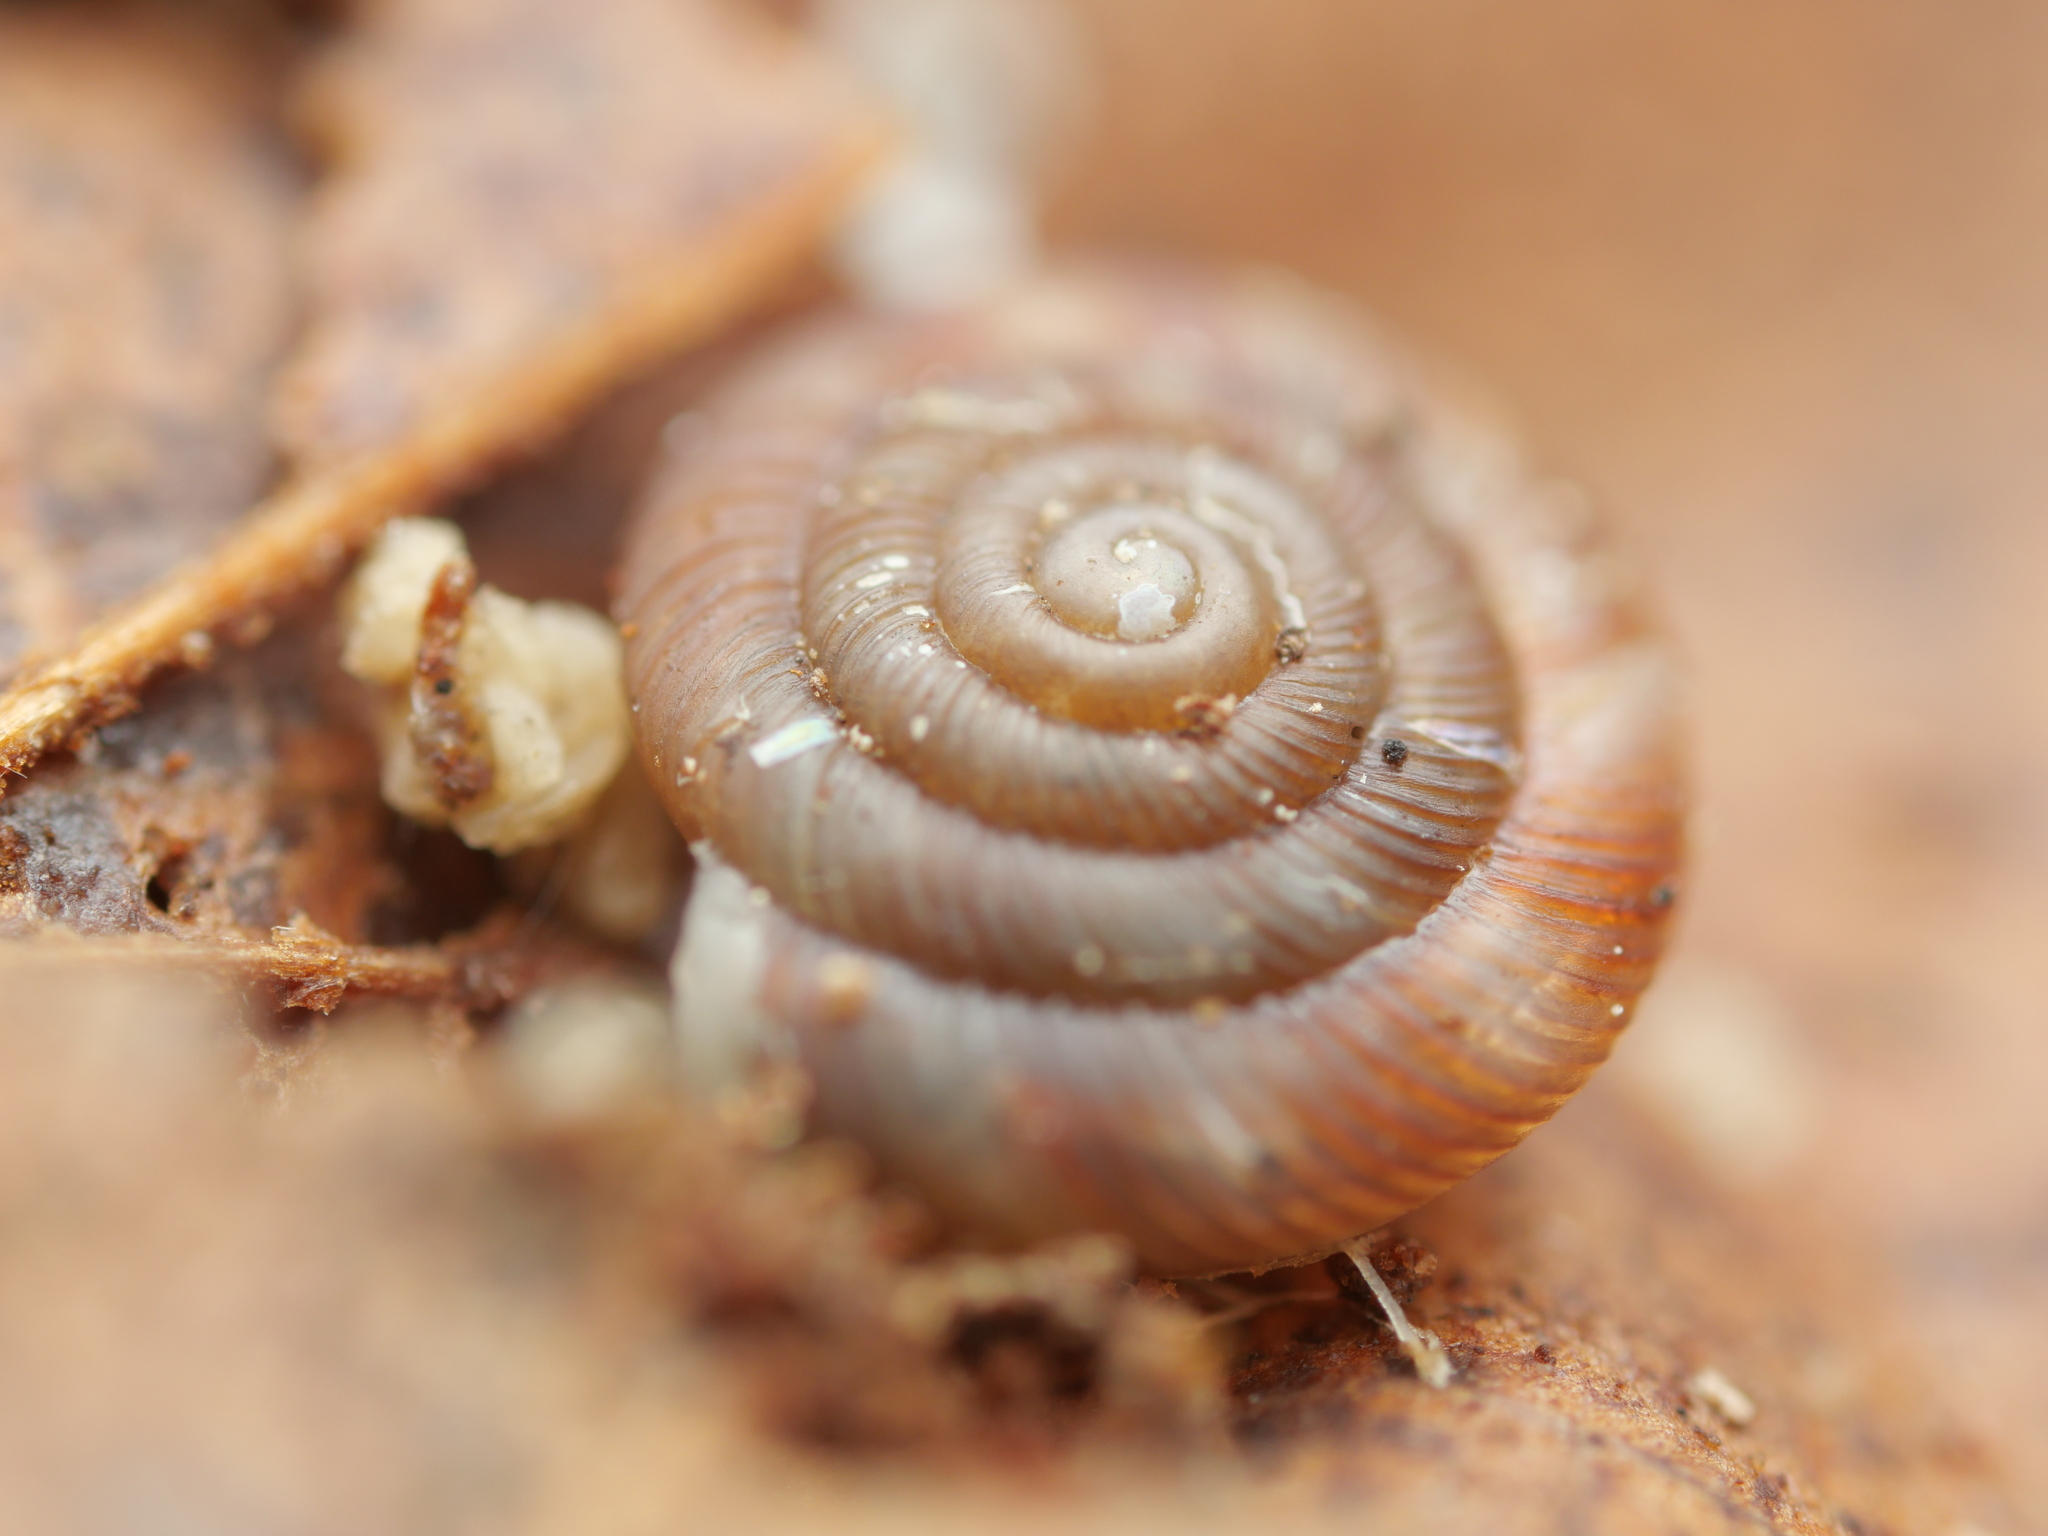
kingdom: Animalia
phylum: Mollusca
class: Gastropoda
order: Stylommatophora
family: Discidae
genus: Discus
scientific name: Discus rotundatus
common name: Rounded snail
